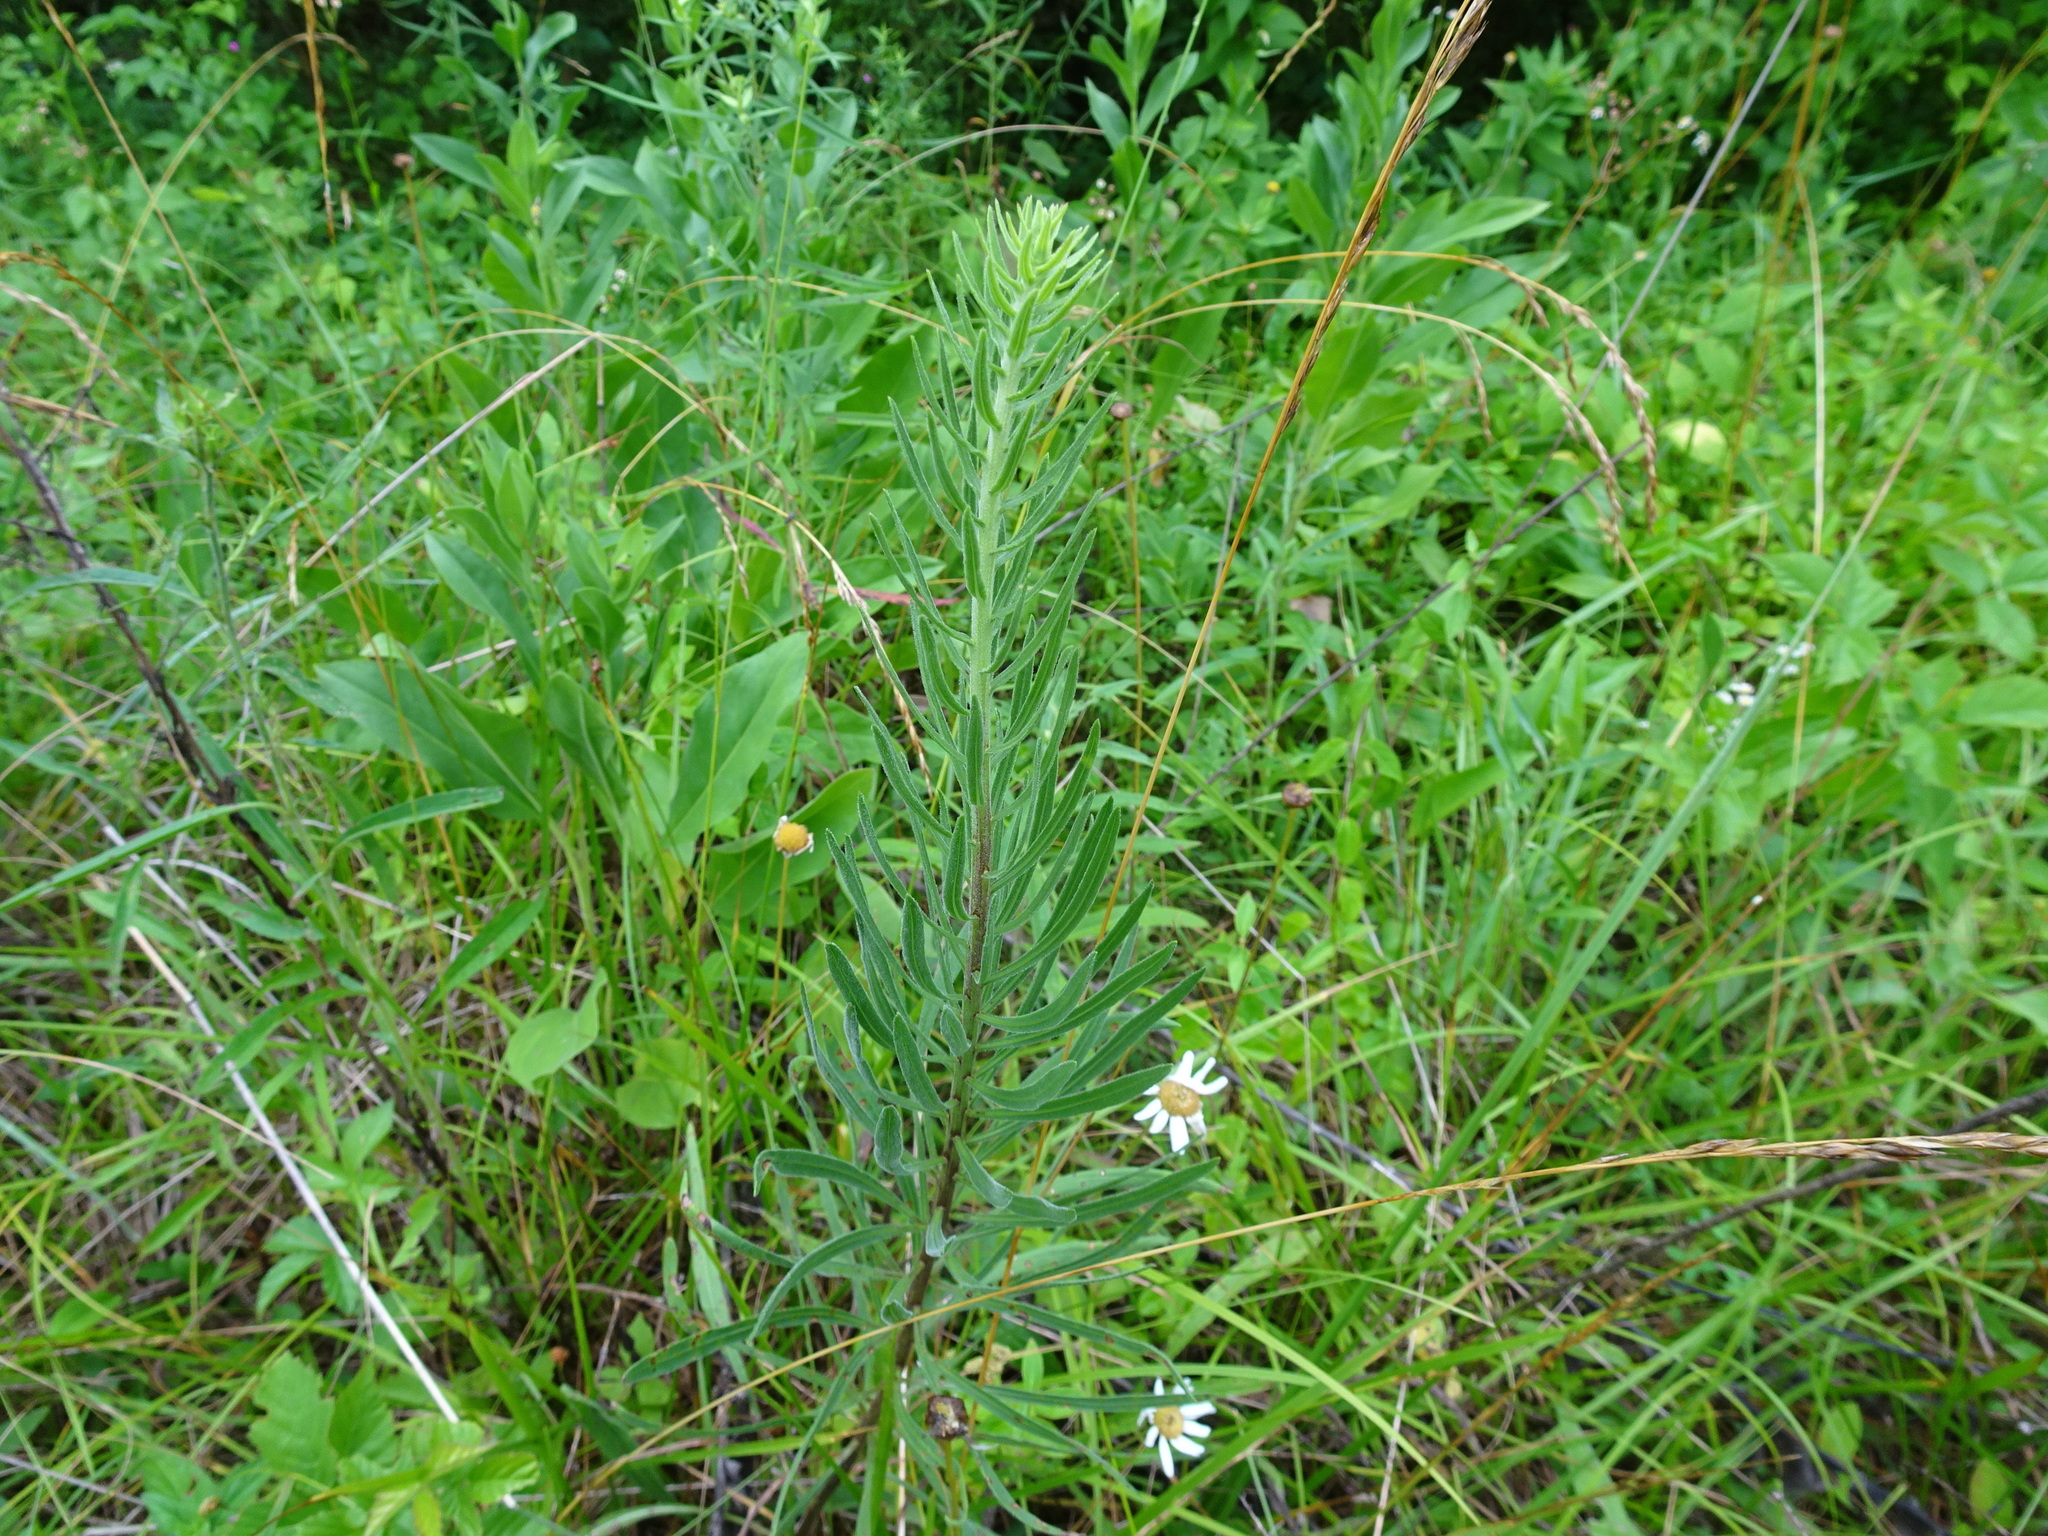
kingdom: Animalia
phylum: Arthropoda
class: Insecta
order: Lepidoptera
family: Nymphalidae
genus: Cercyonis
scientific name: Cercyonis pegala
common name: Common wood-nymph
